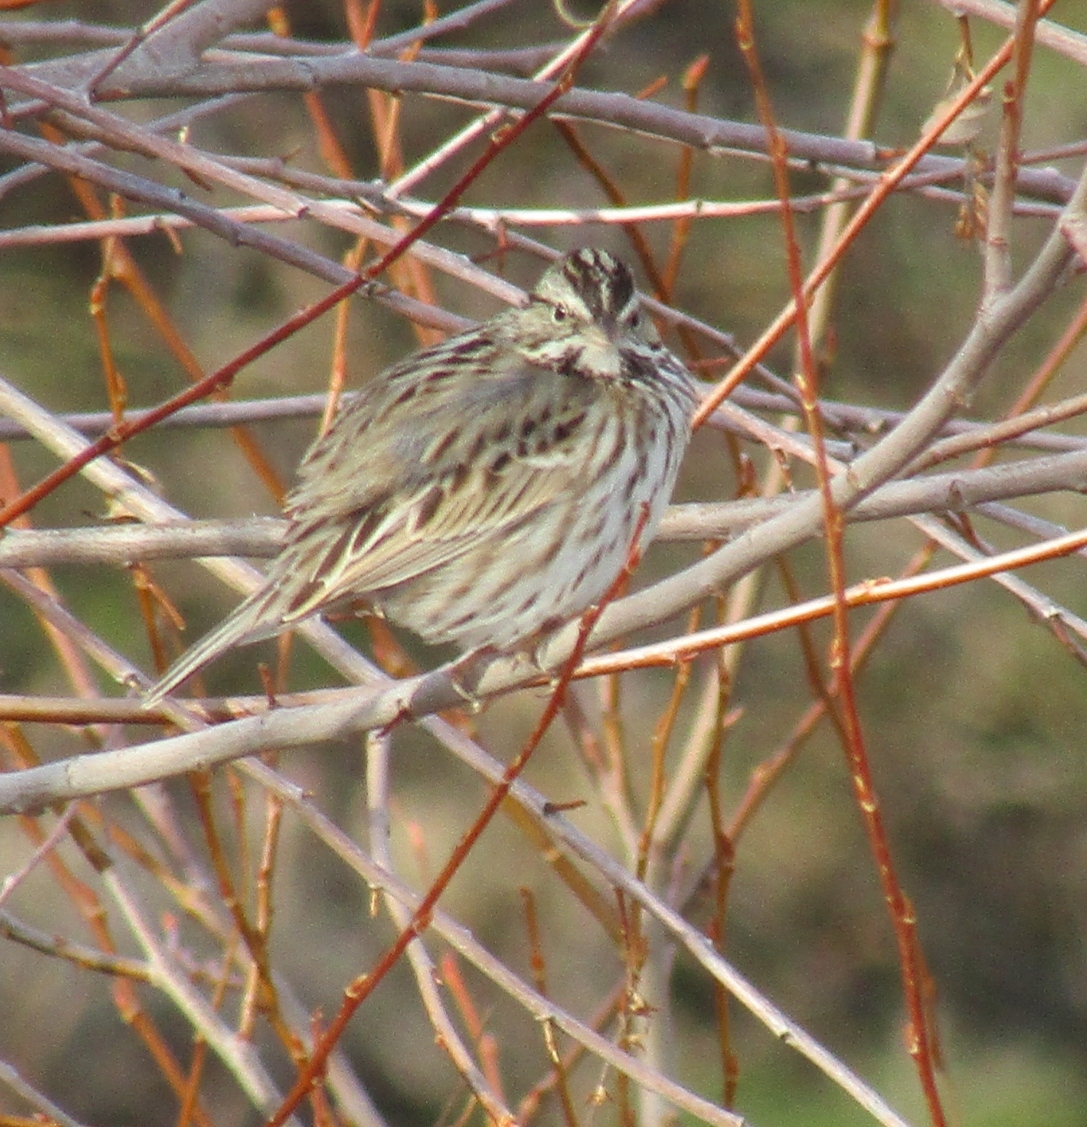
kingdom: Animalia
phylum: Chordata
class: Aves
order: Passeriformes
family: Passerellidae
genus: Passerculus
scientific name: Passerculus sandwichensis
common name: Savannah sparrow
